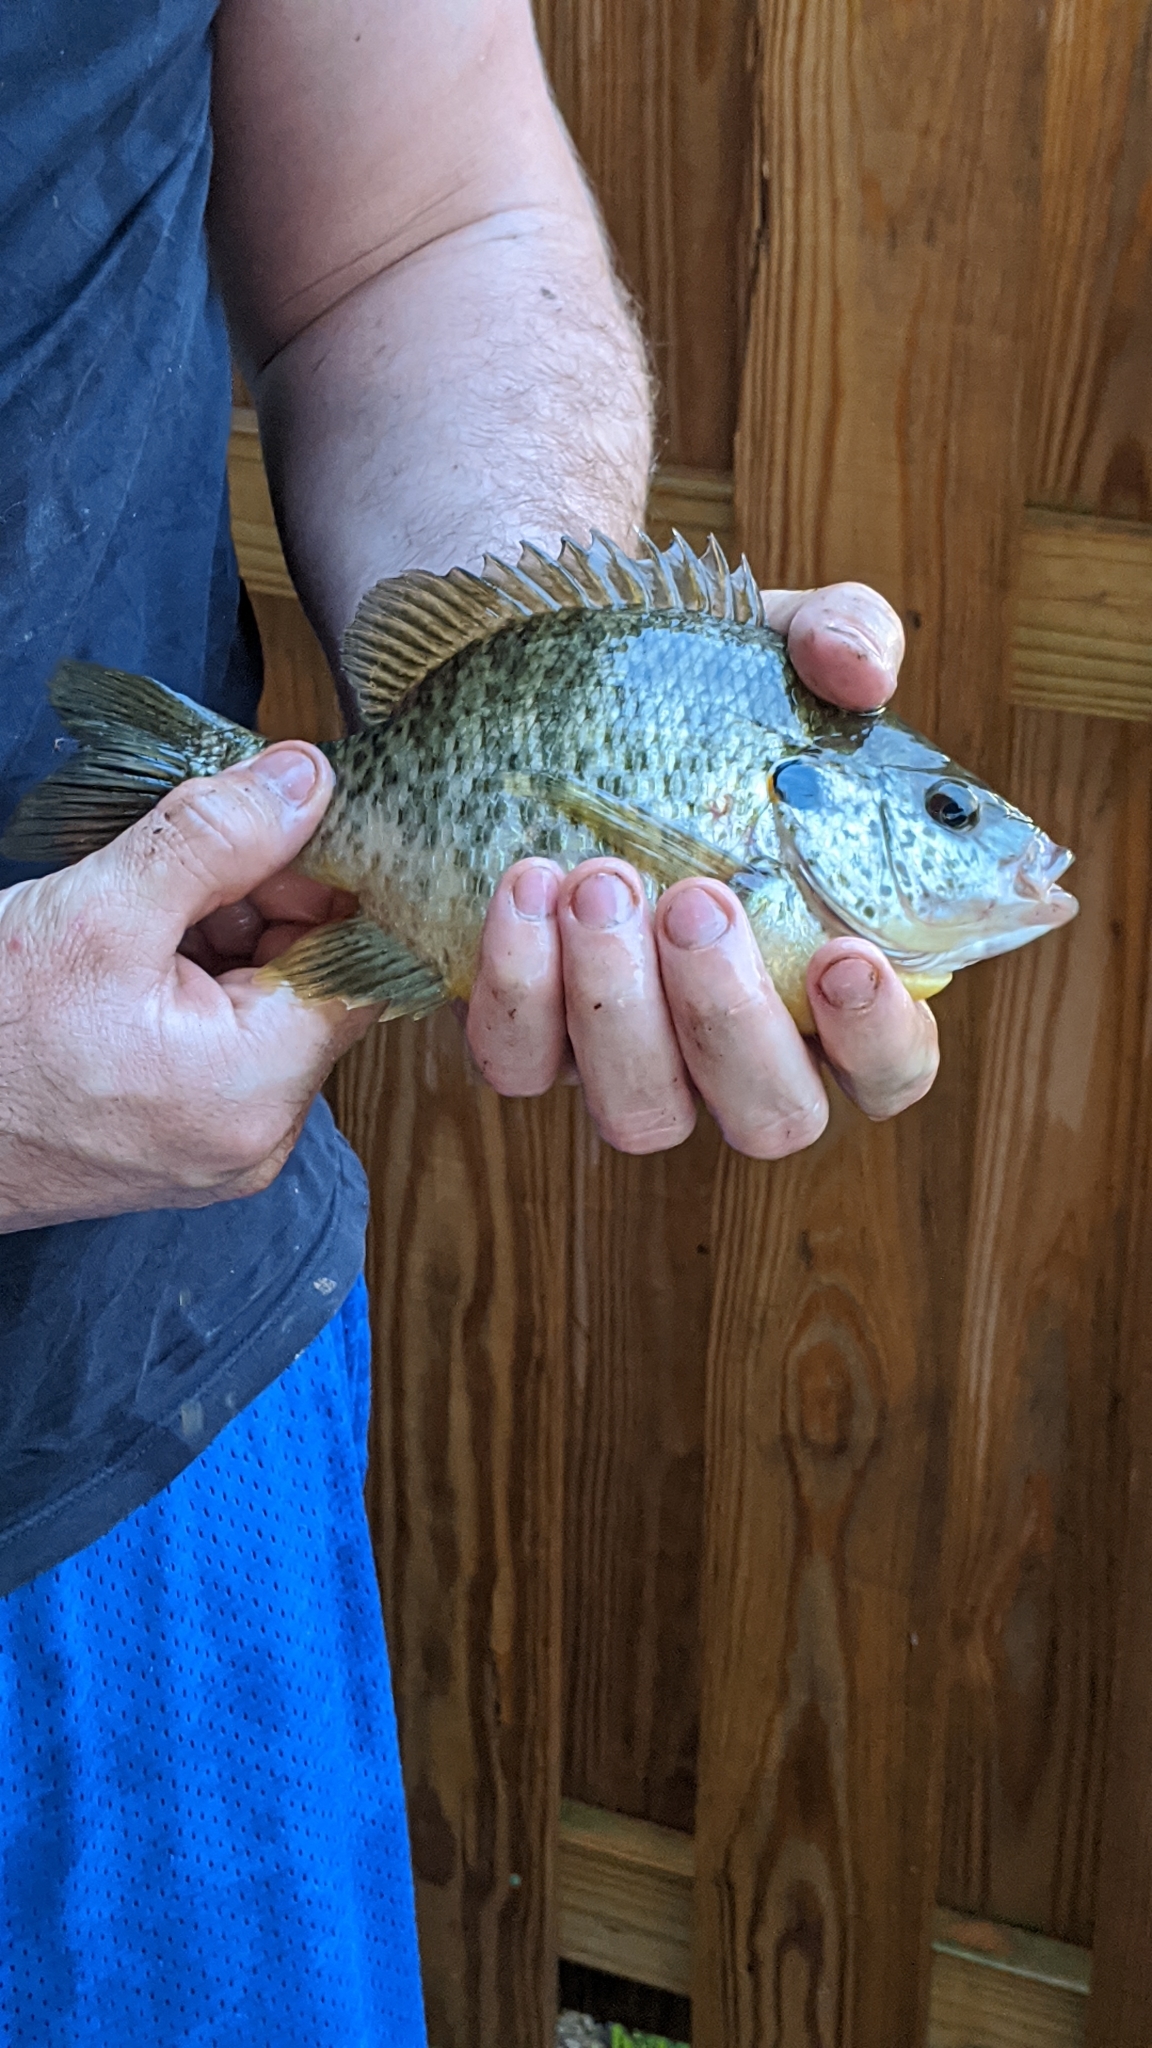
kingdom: Animalia
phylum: Chordata
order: Perciformes
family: Centrarchidae
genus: Lepomis
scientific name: Lepomis microlophus
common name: Redear sunfish
